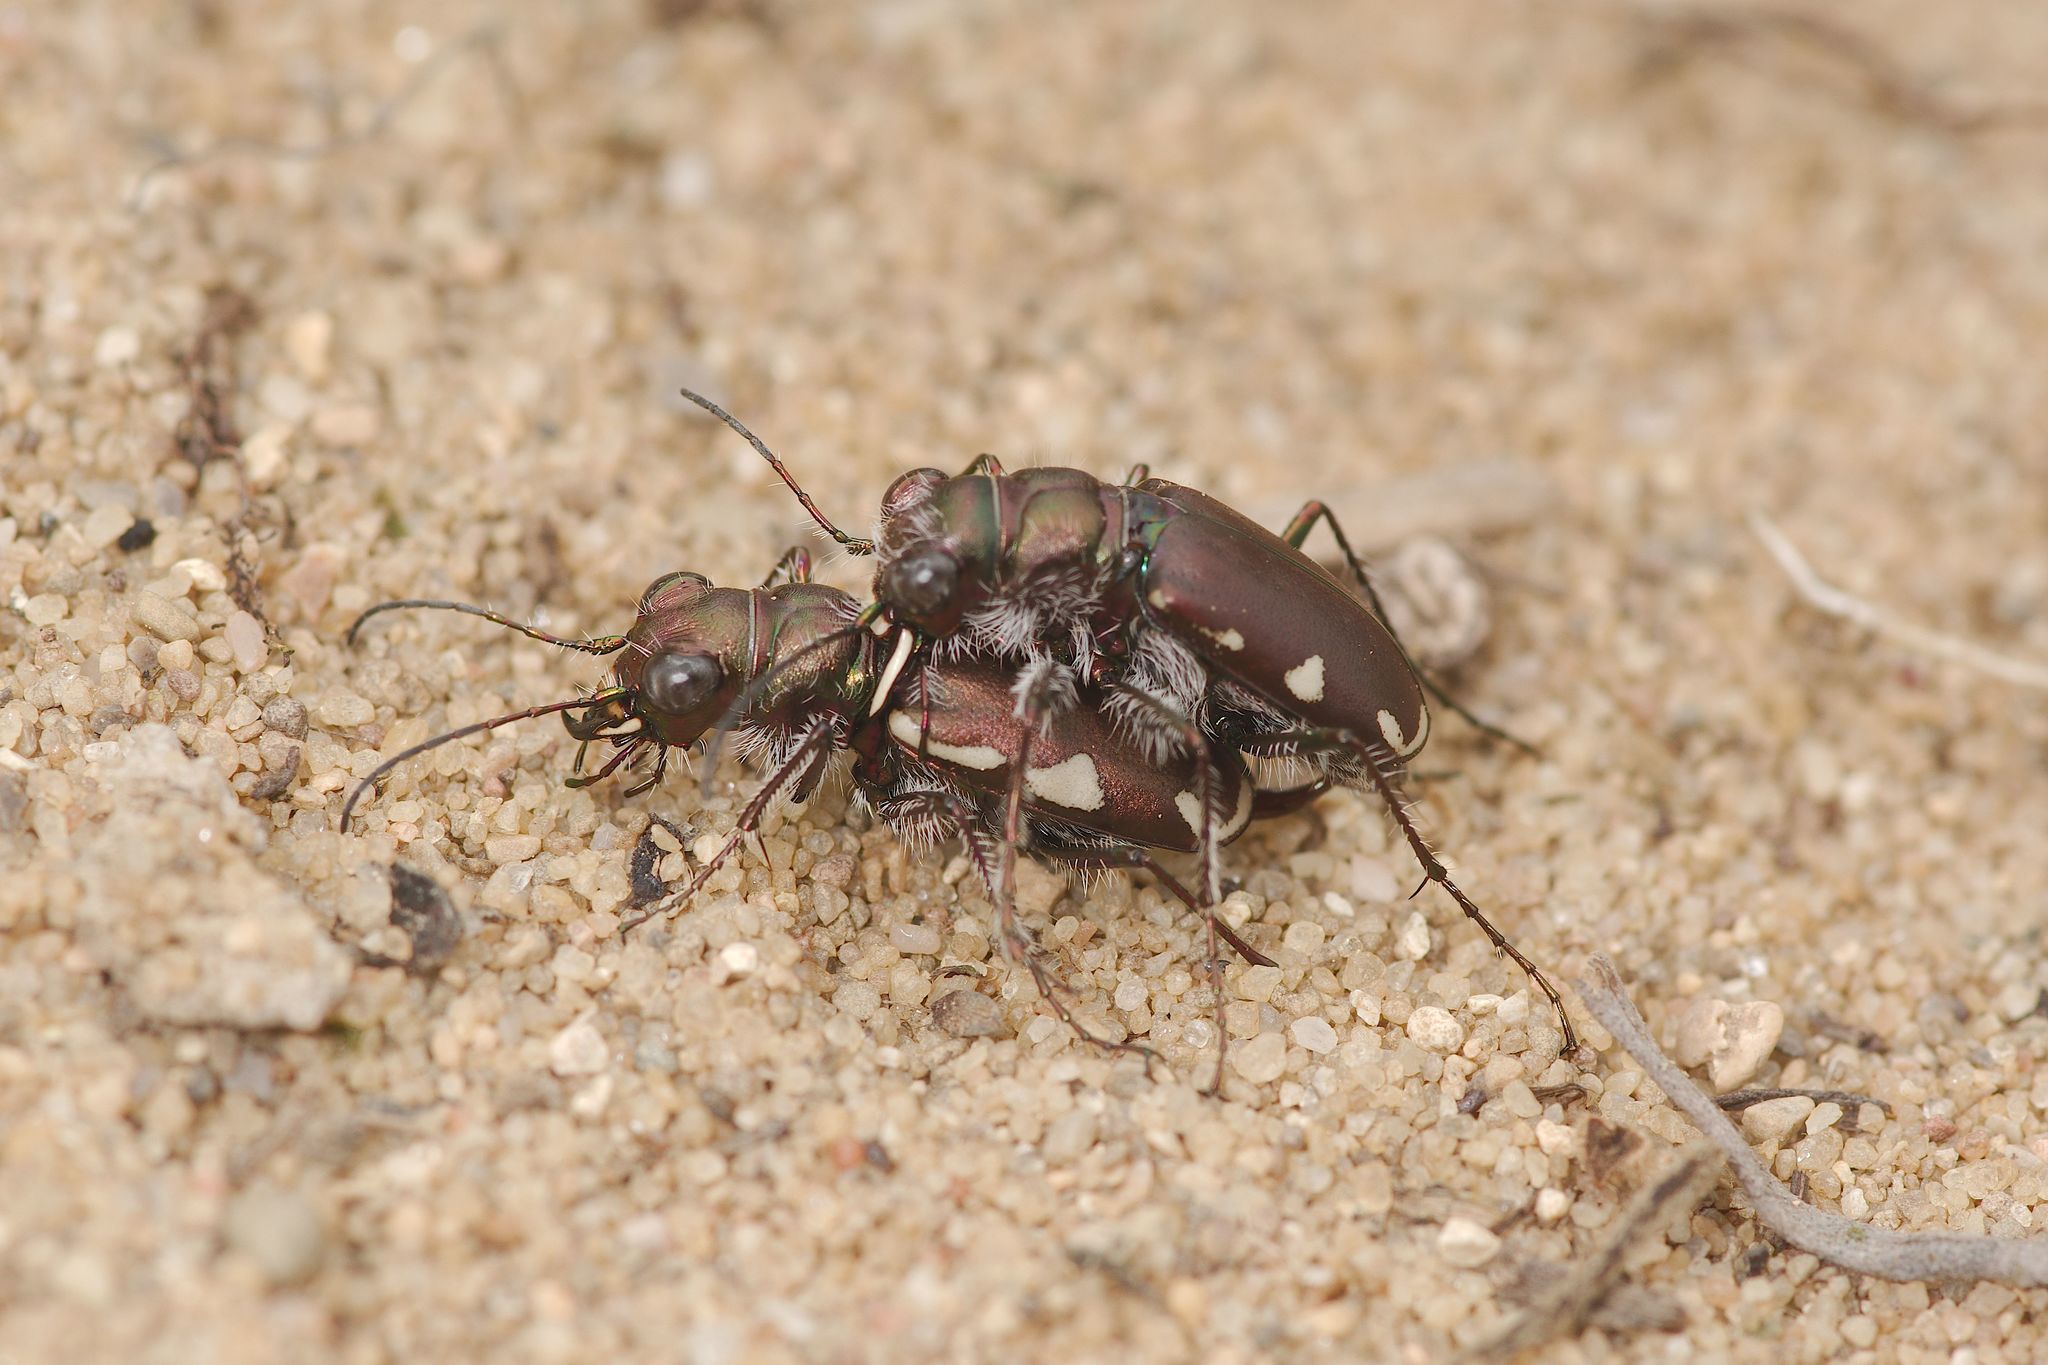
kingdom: Animalia
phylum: Arthropoda
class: Insecta
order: Coleoptera
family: Carabidae
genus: Cicindela
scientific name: Cicindela scutellaris
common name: Festive tiger beetle
